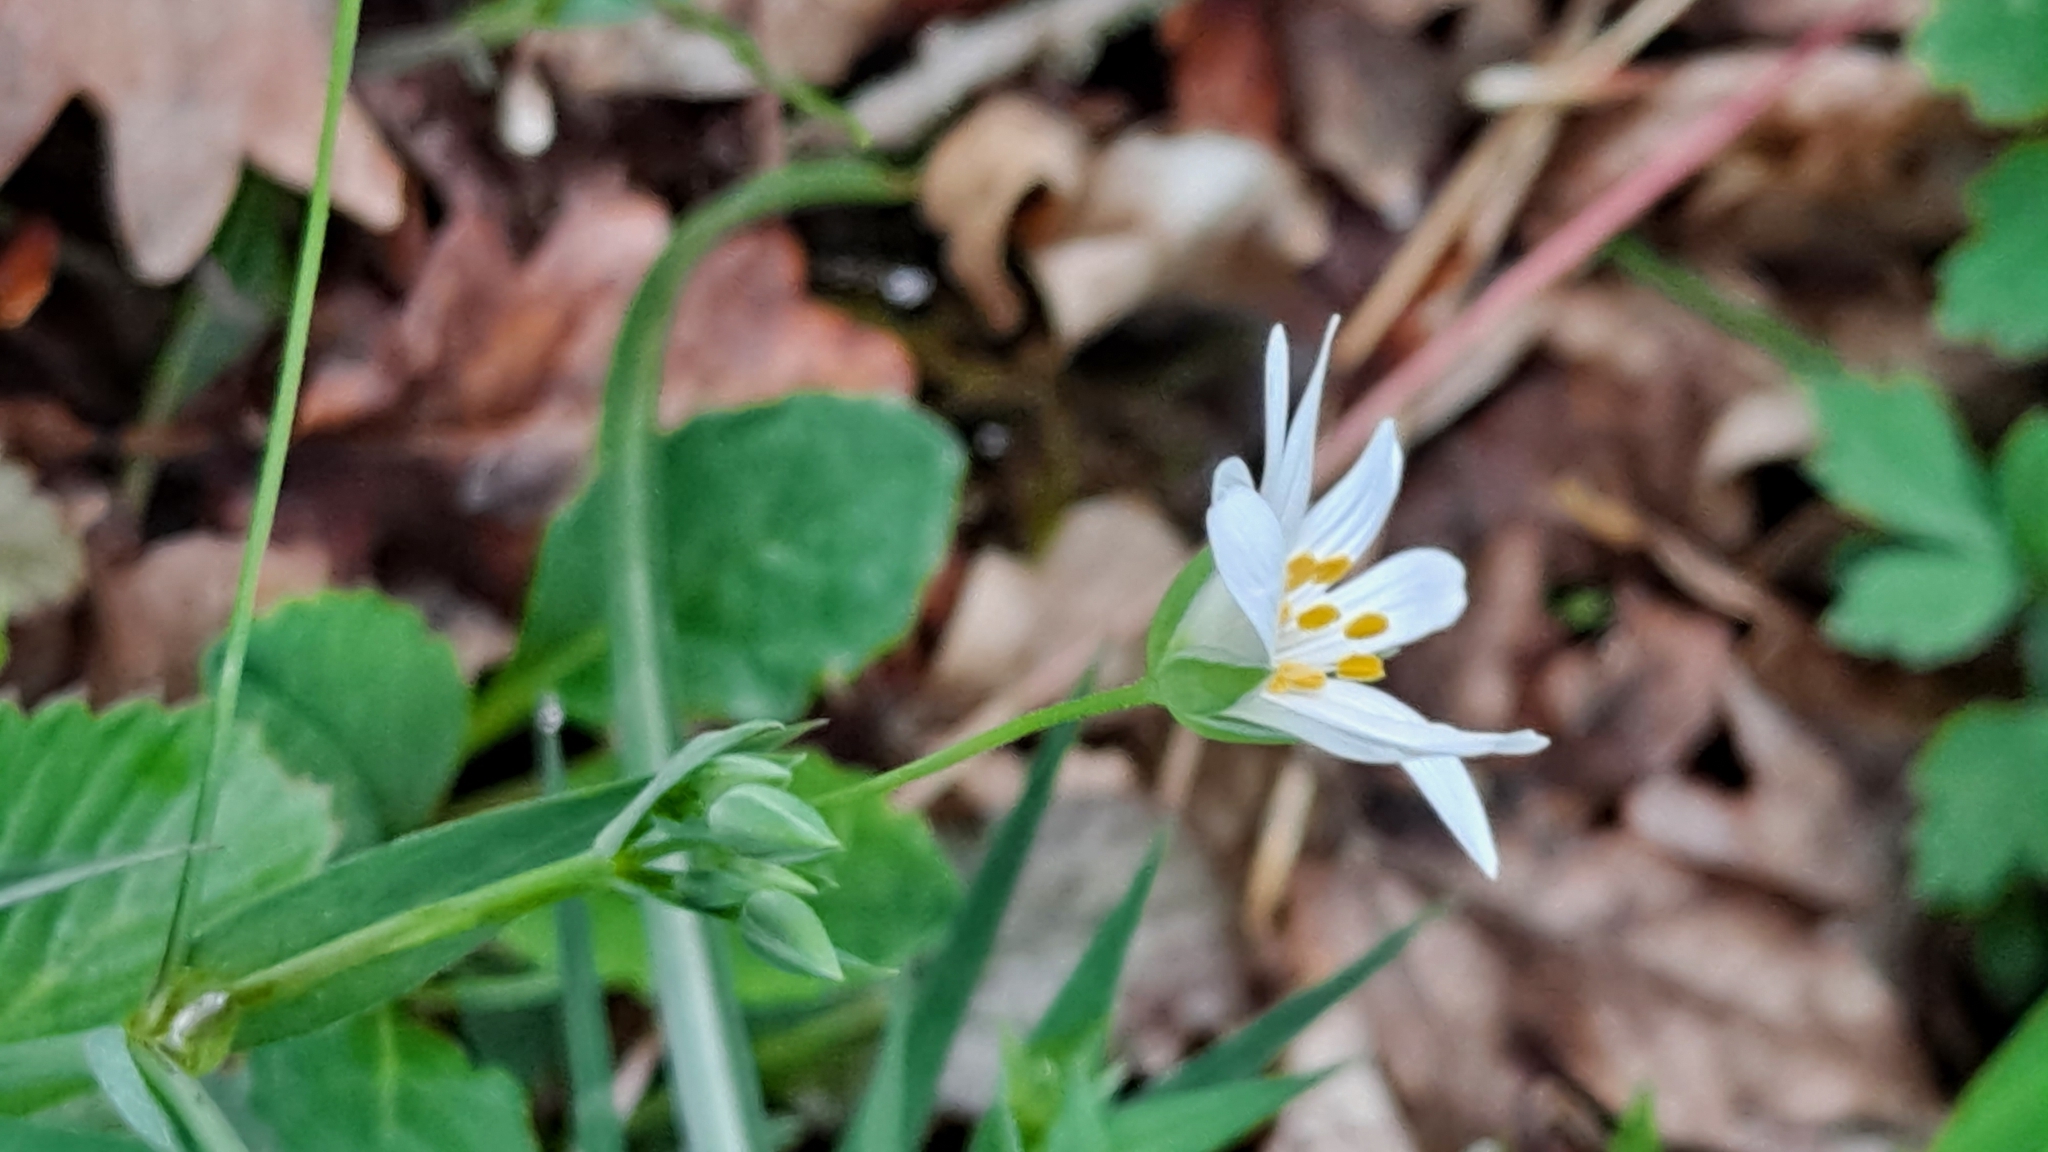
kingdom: Plantae
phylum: Tracheophyta
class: Magnoliopsida
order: Caryophyllales
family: Caryophyllaceae
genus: Rabelera
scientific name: Rabelera holostea
